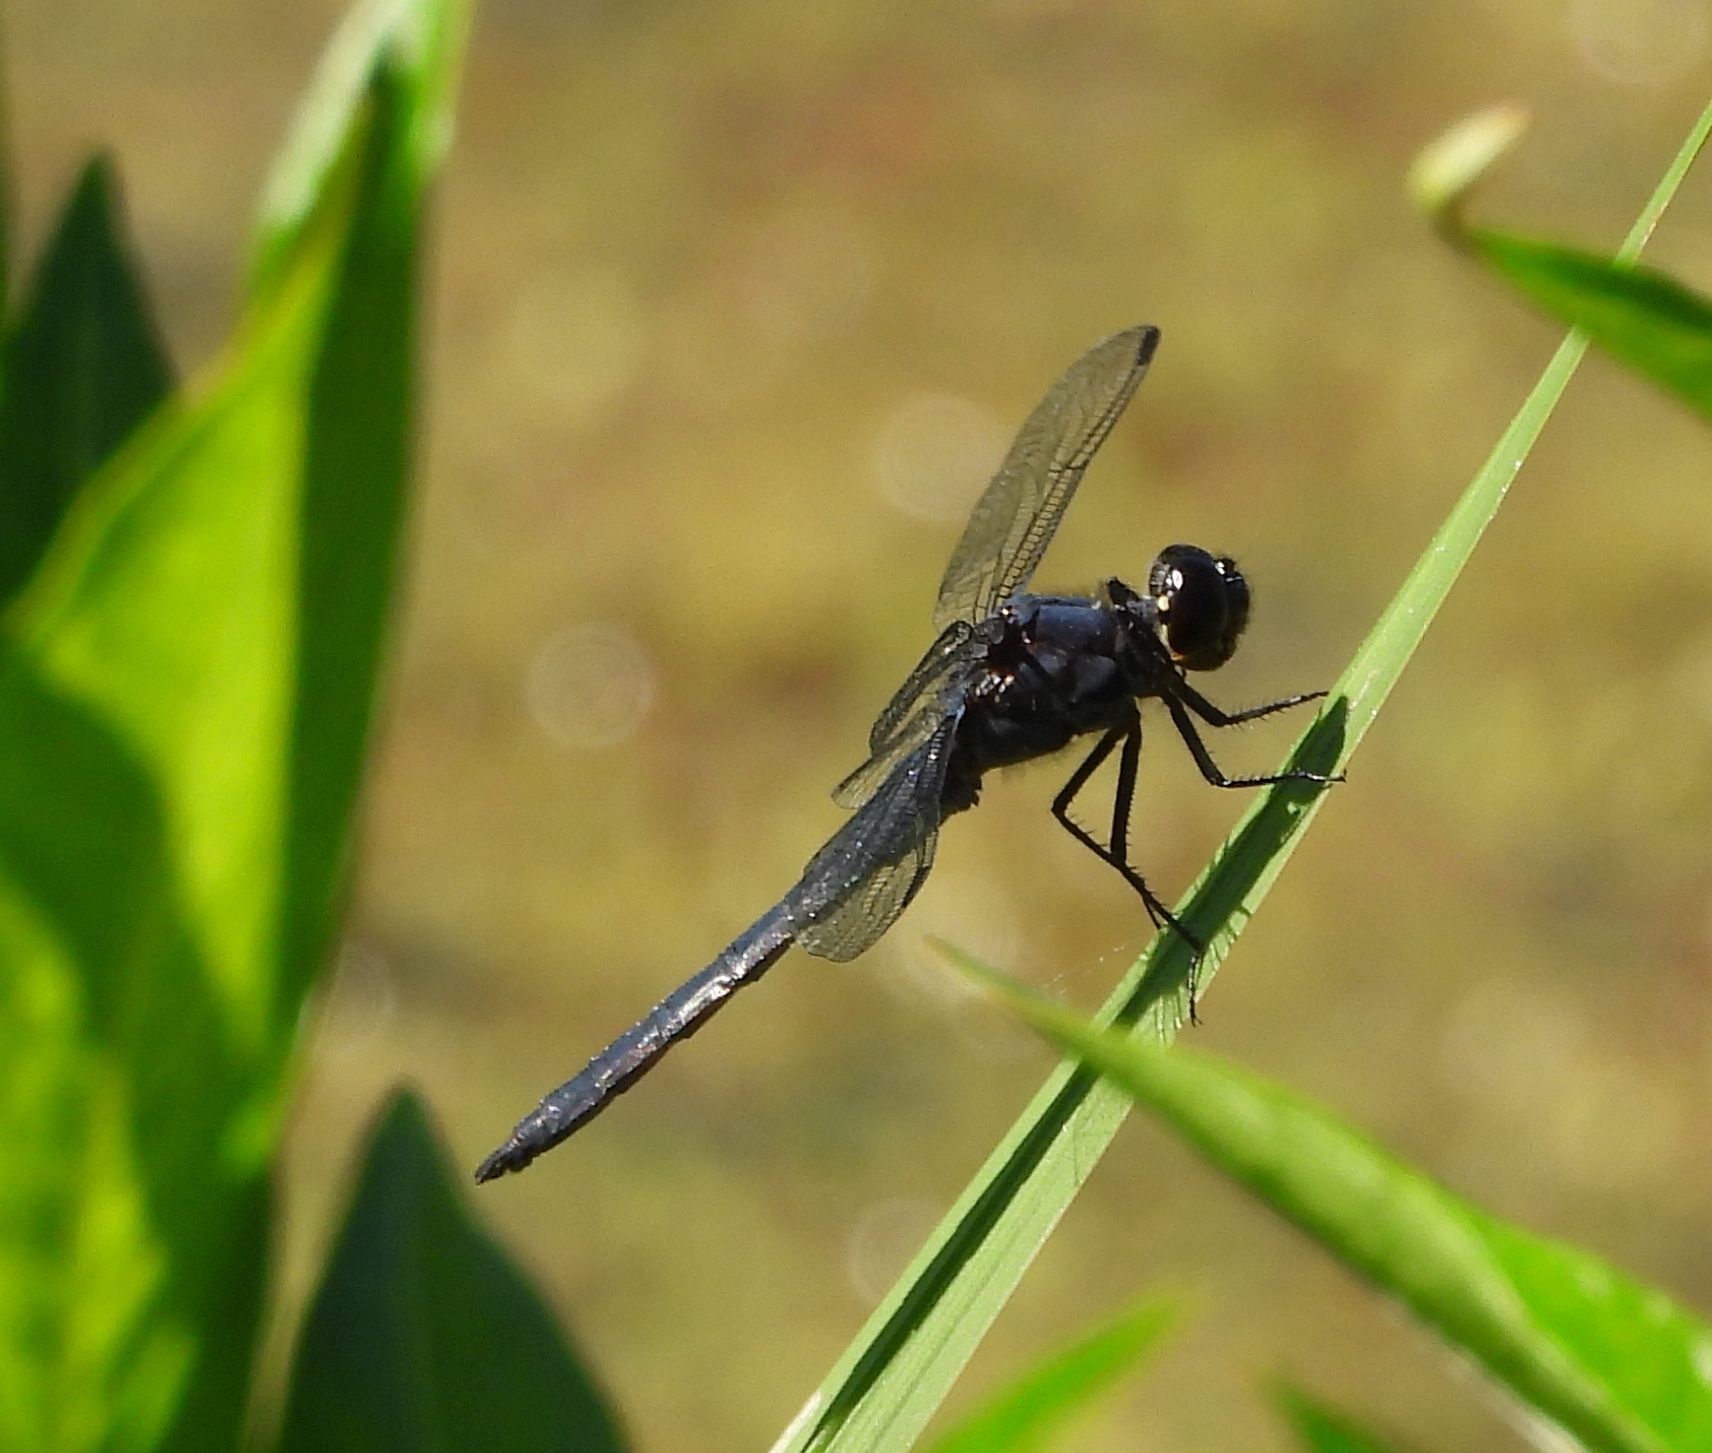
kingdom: Animalia
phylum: Arthropoda
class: Insecta
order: Odonata
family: Libellulidae
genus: Libellula
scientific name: Libellula incesta
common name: Slaty skimmer
